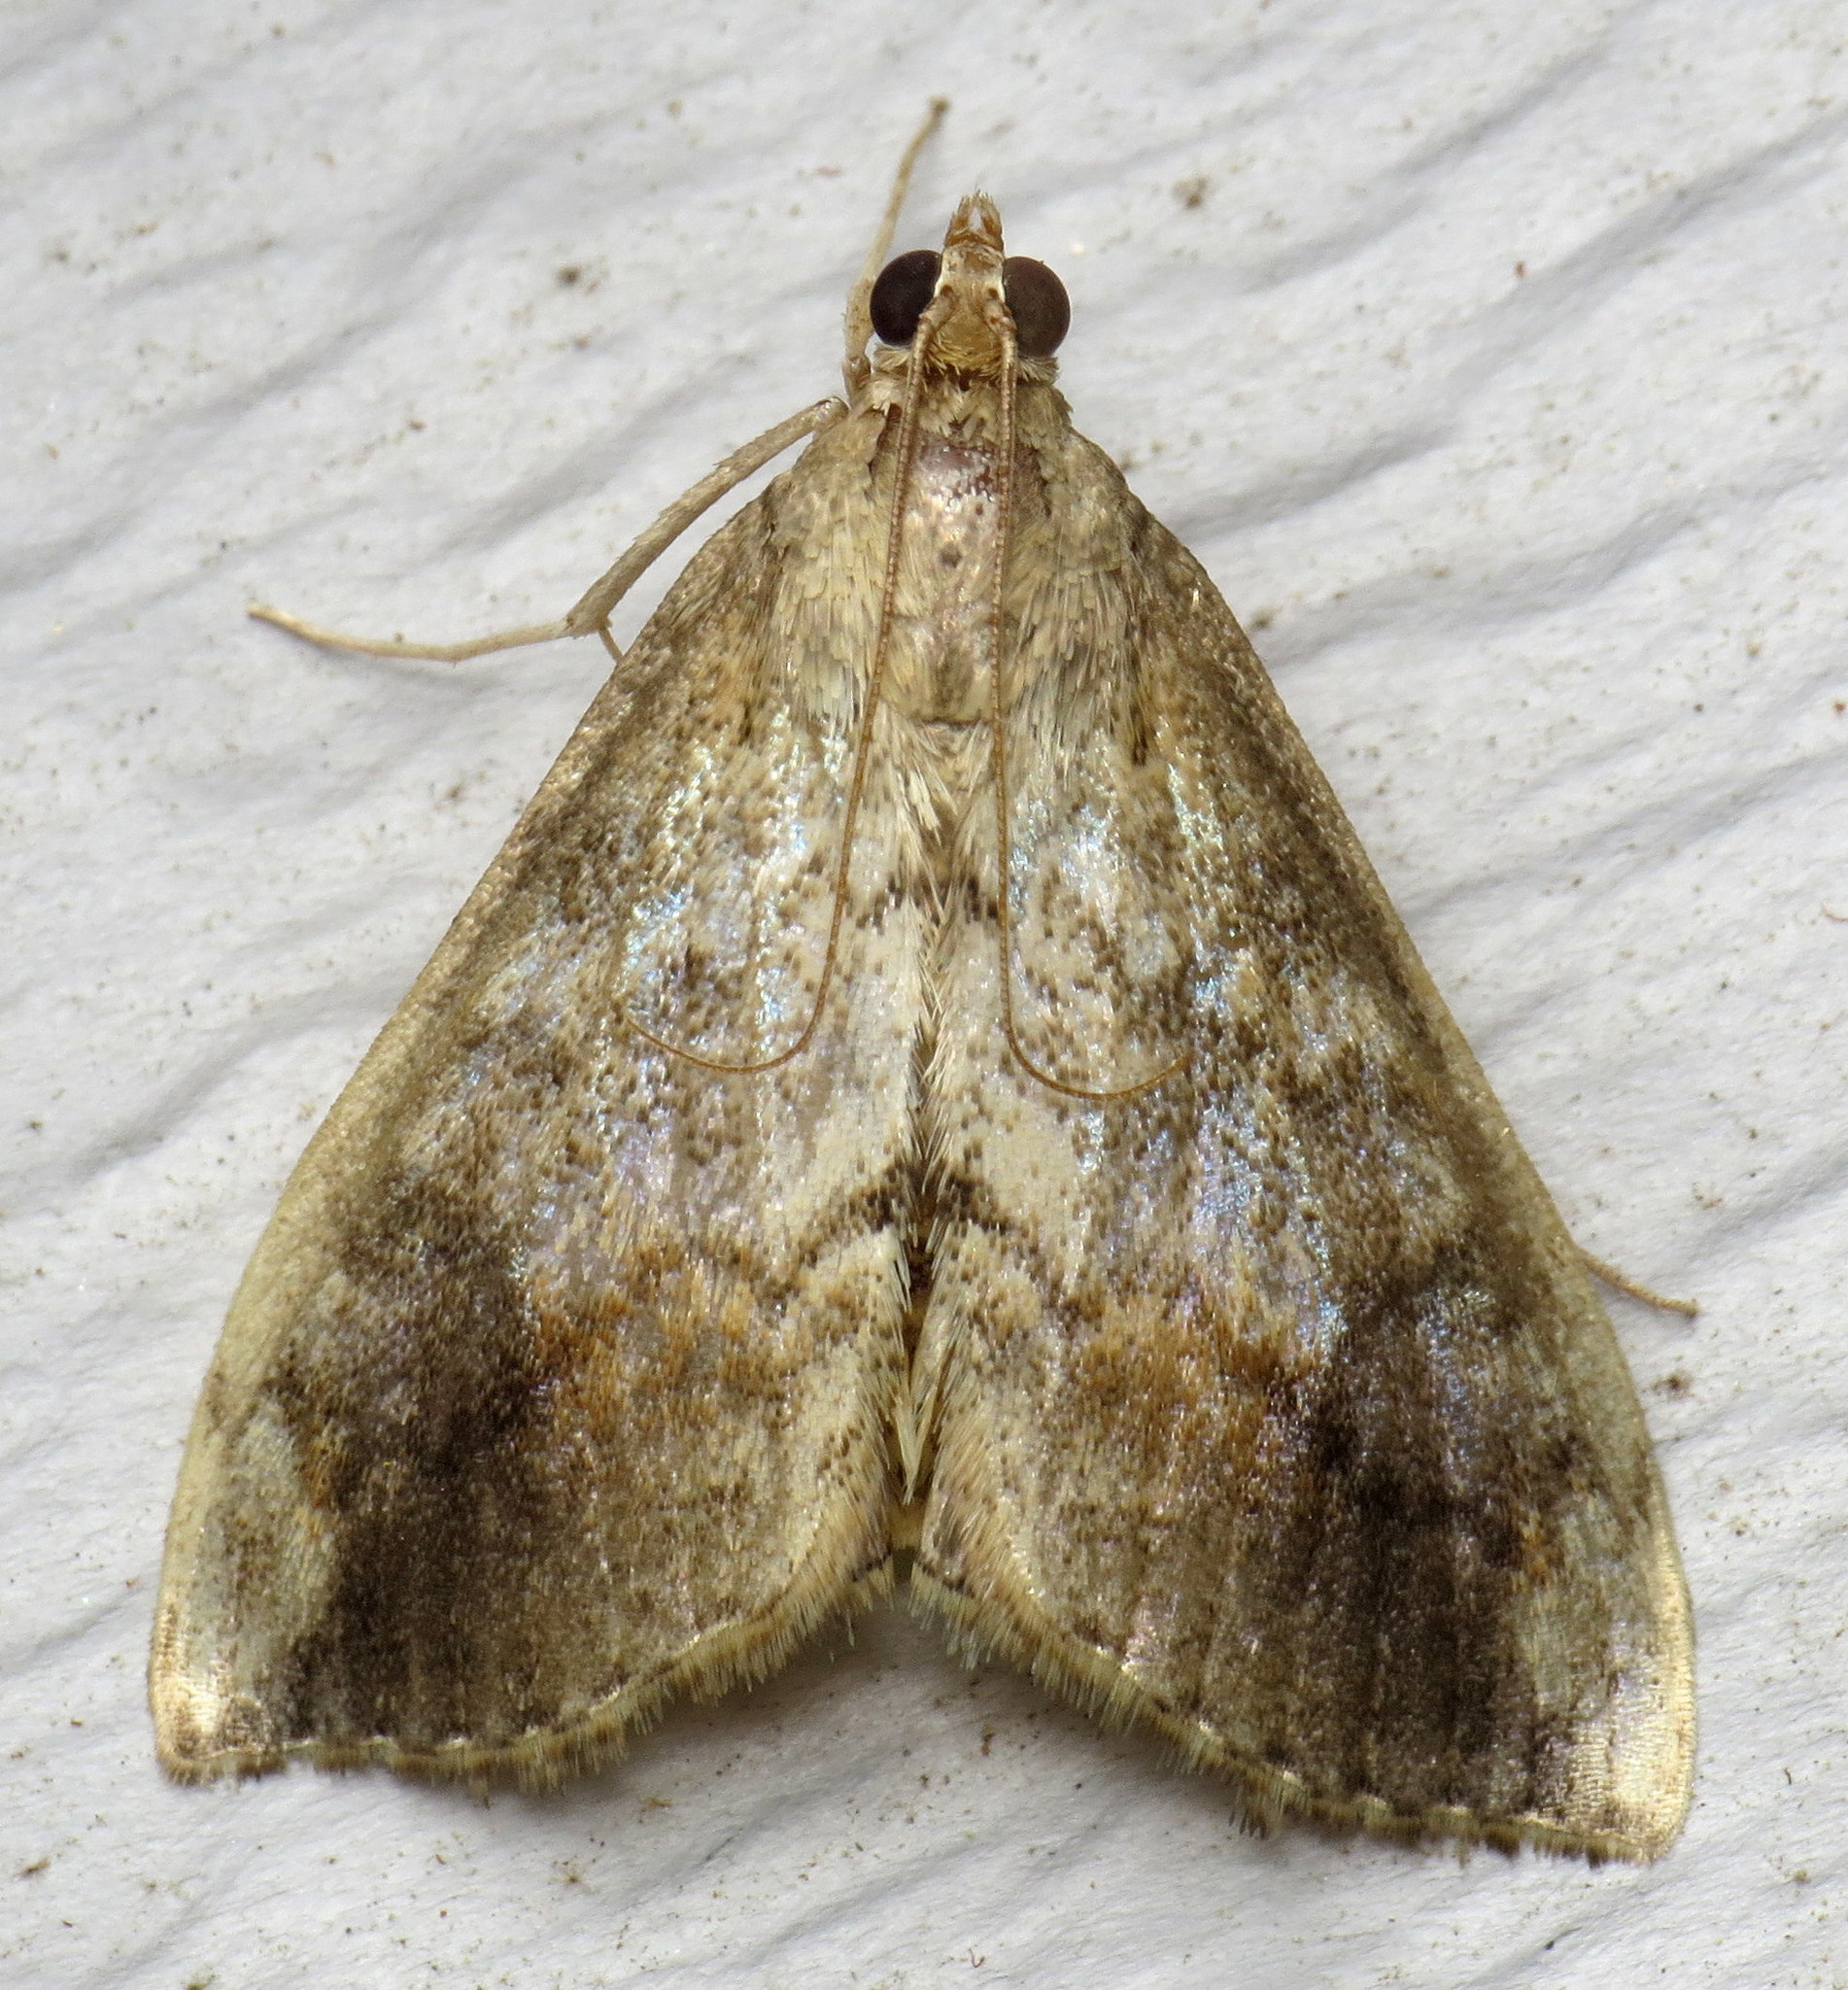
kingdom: Animalia
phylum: Arthropoda
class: Insecta
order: Lepidoptera
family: Crambidae
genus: Evergestis
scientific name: Evergestis rimosalis
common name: Cross-striped cabbageworm moth
